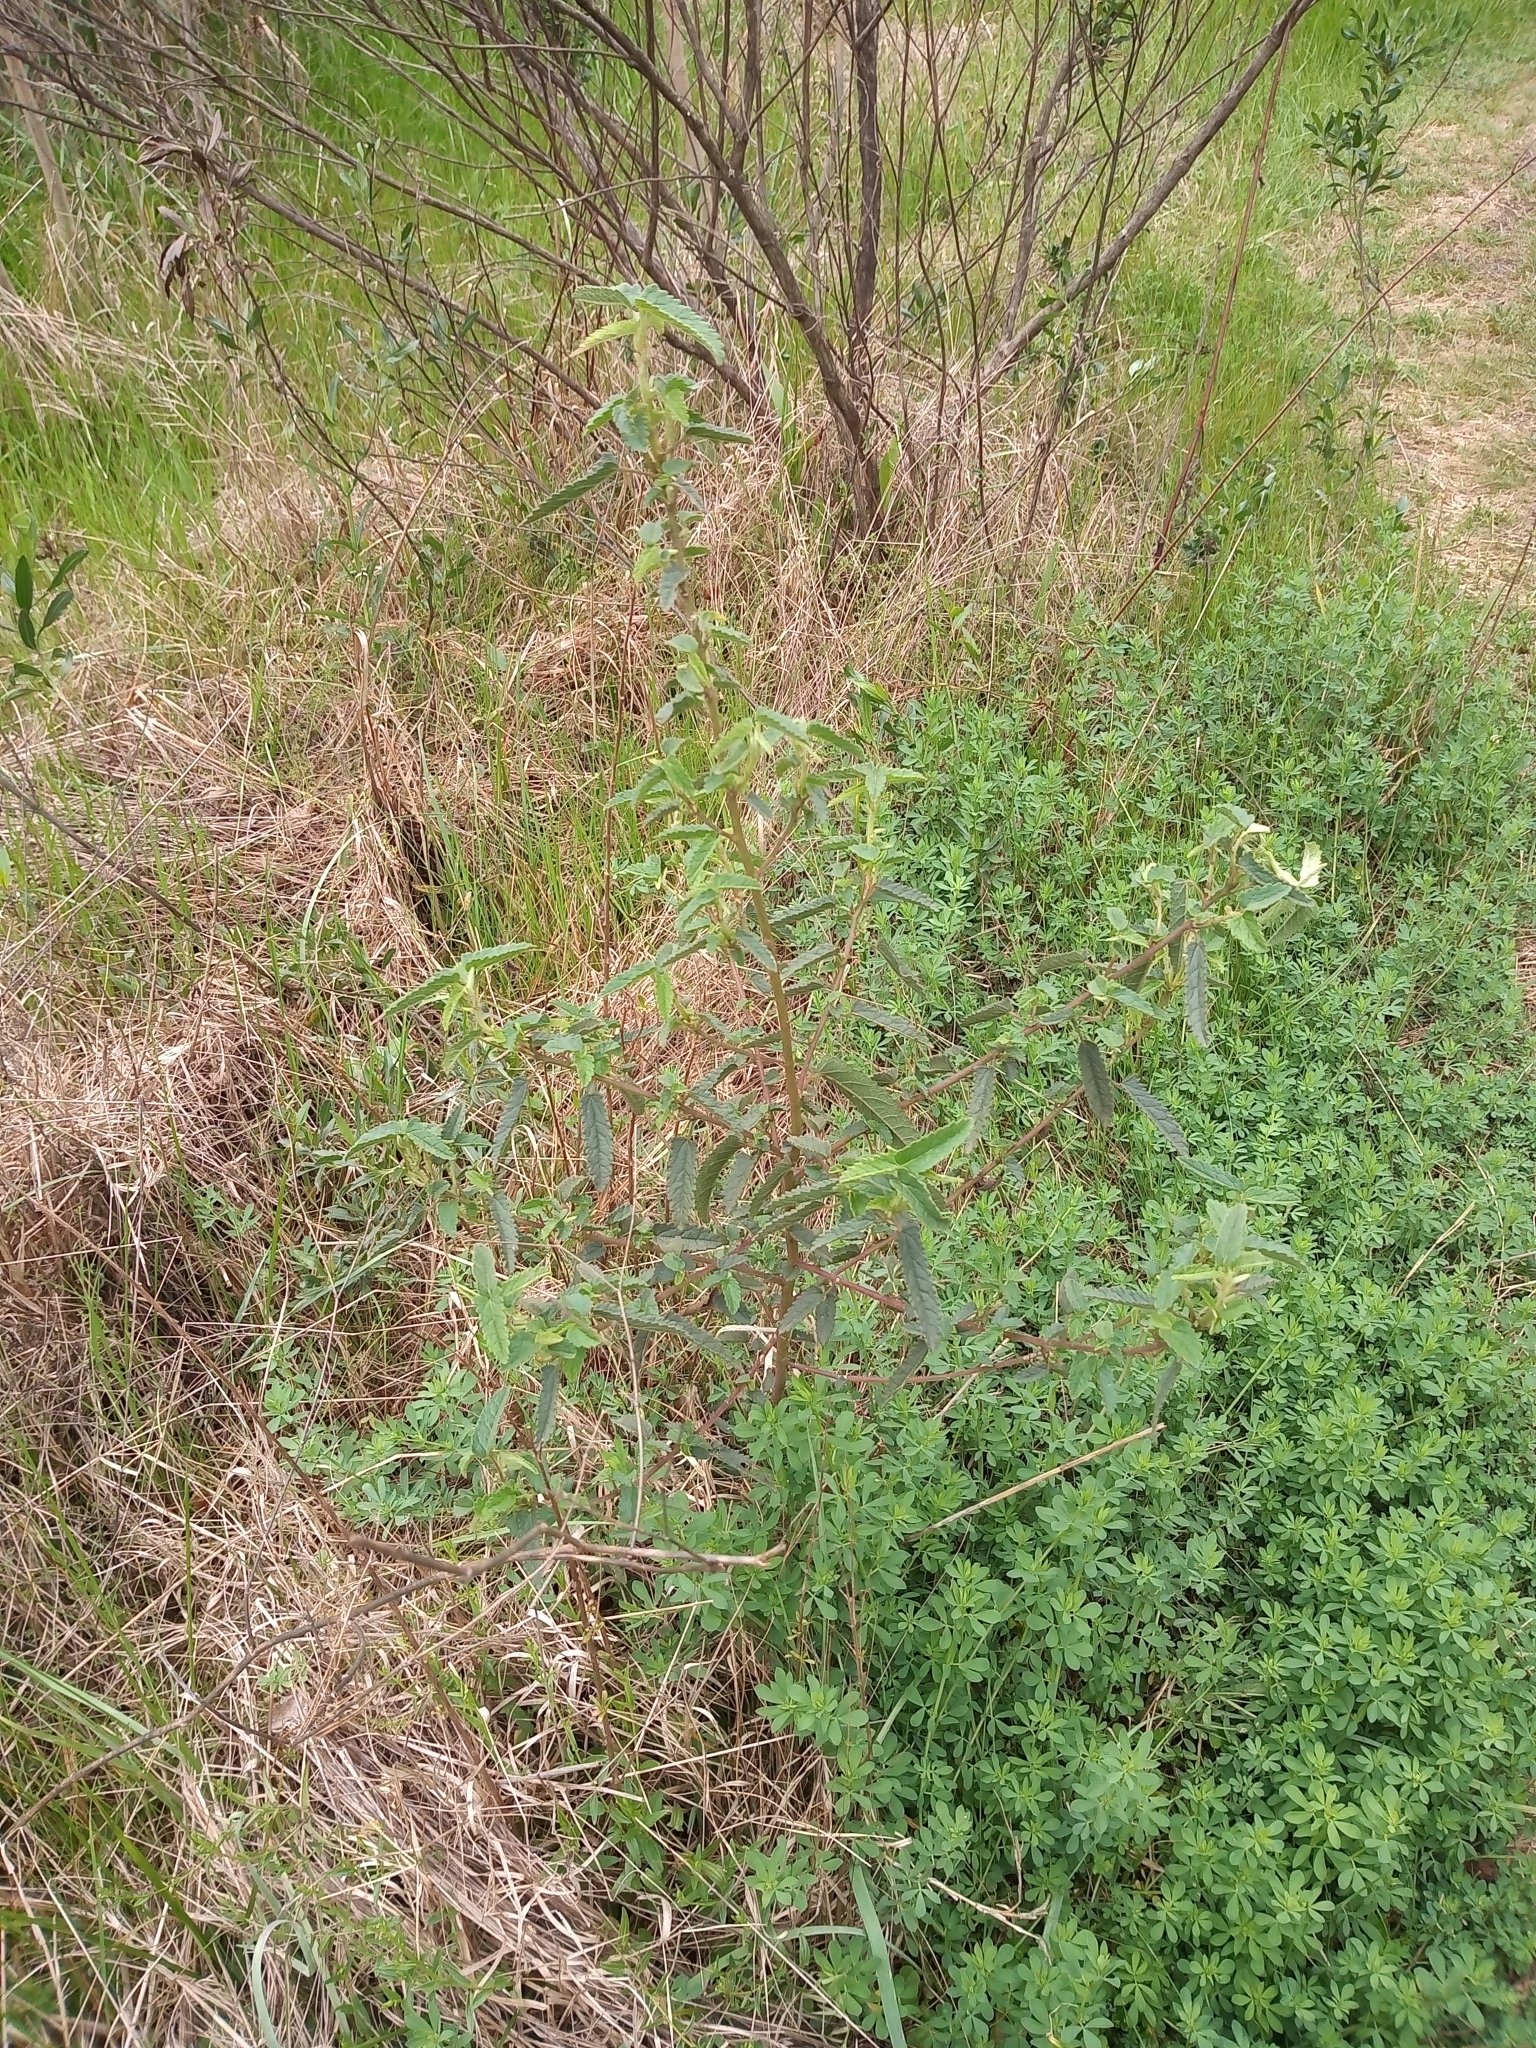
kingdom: Plantae
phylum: Tracheophyta
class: Magnoliopsida
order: Malvales
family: Malvaceae
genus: Melochia
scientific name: Melochia pyramidata
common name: Pyramidflower
